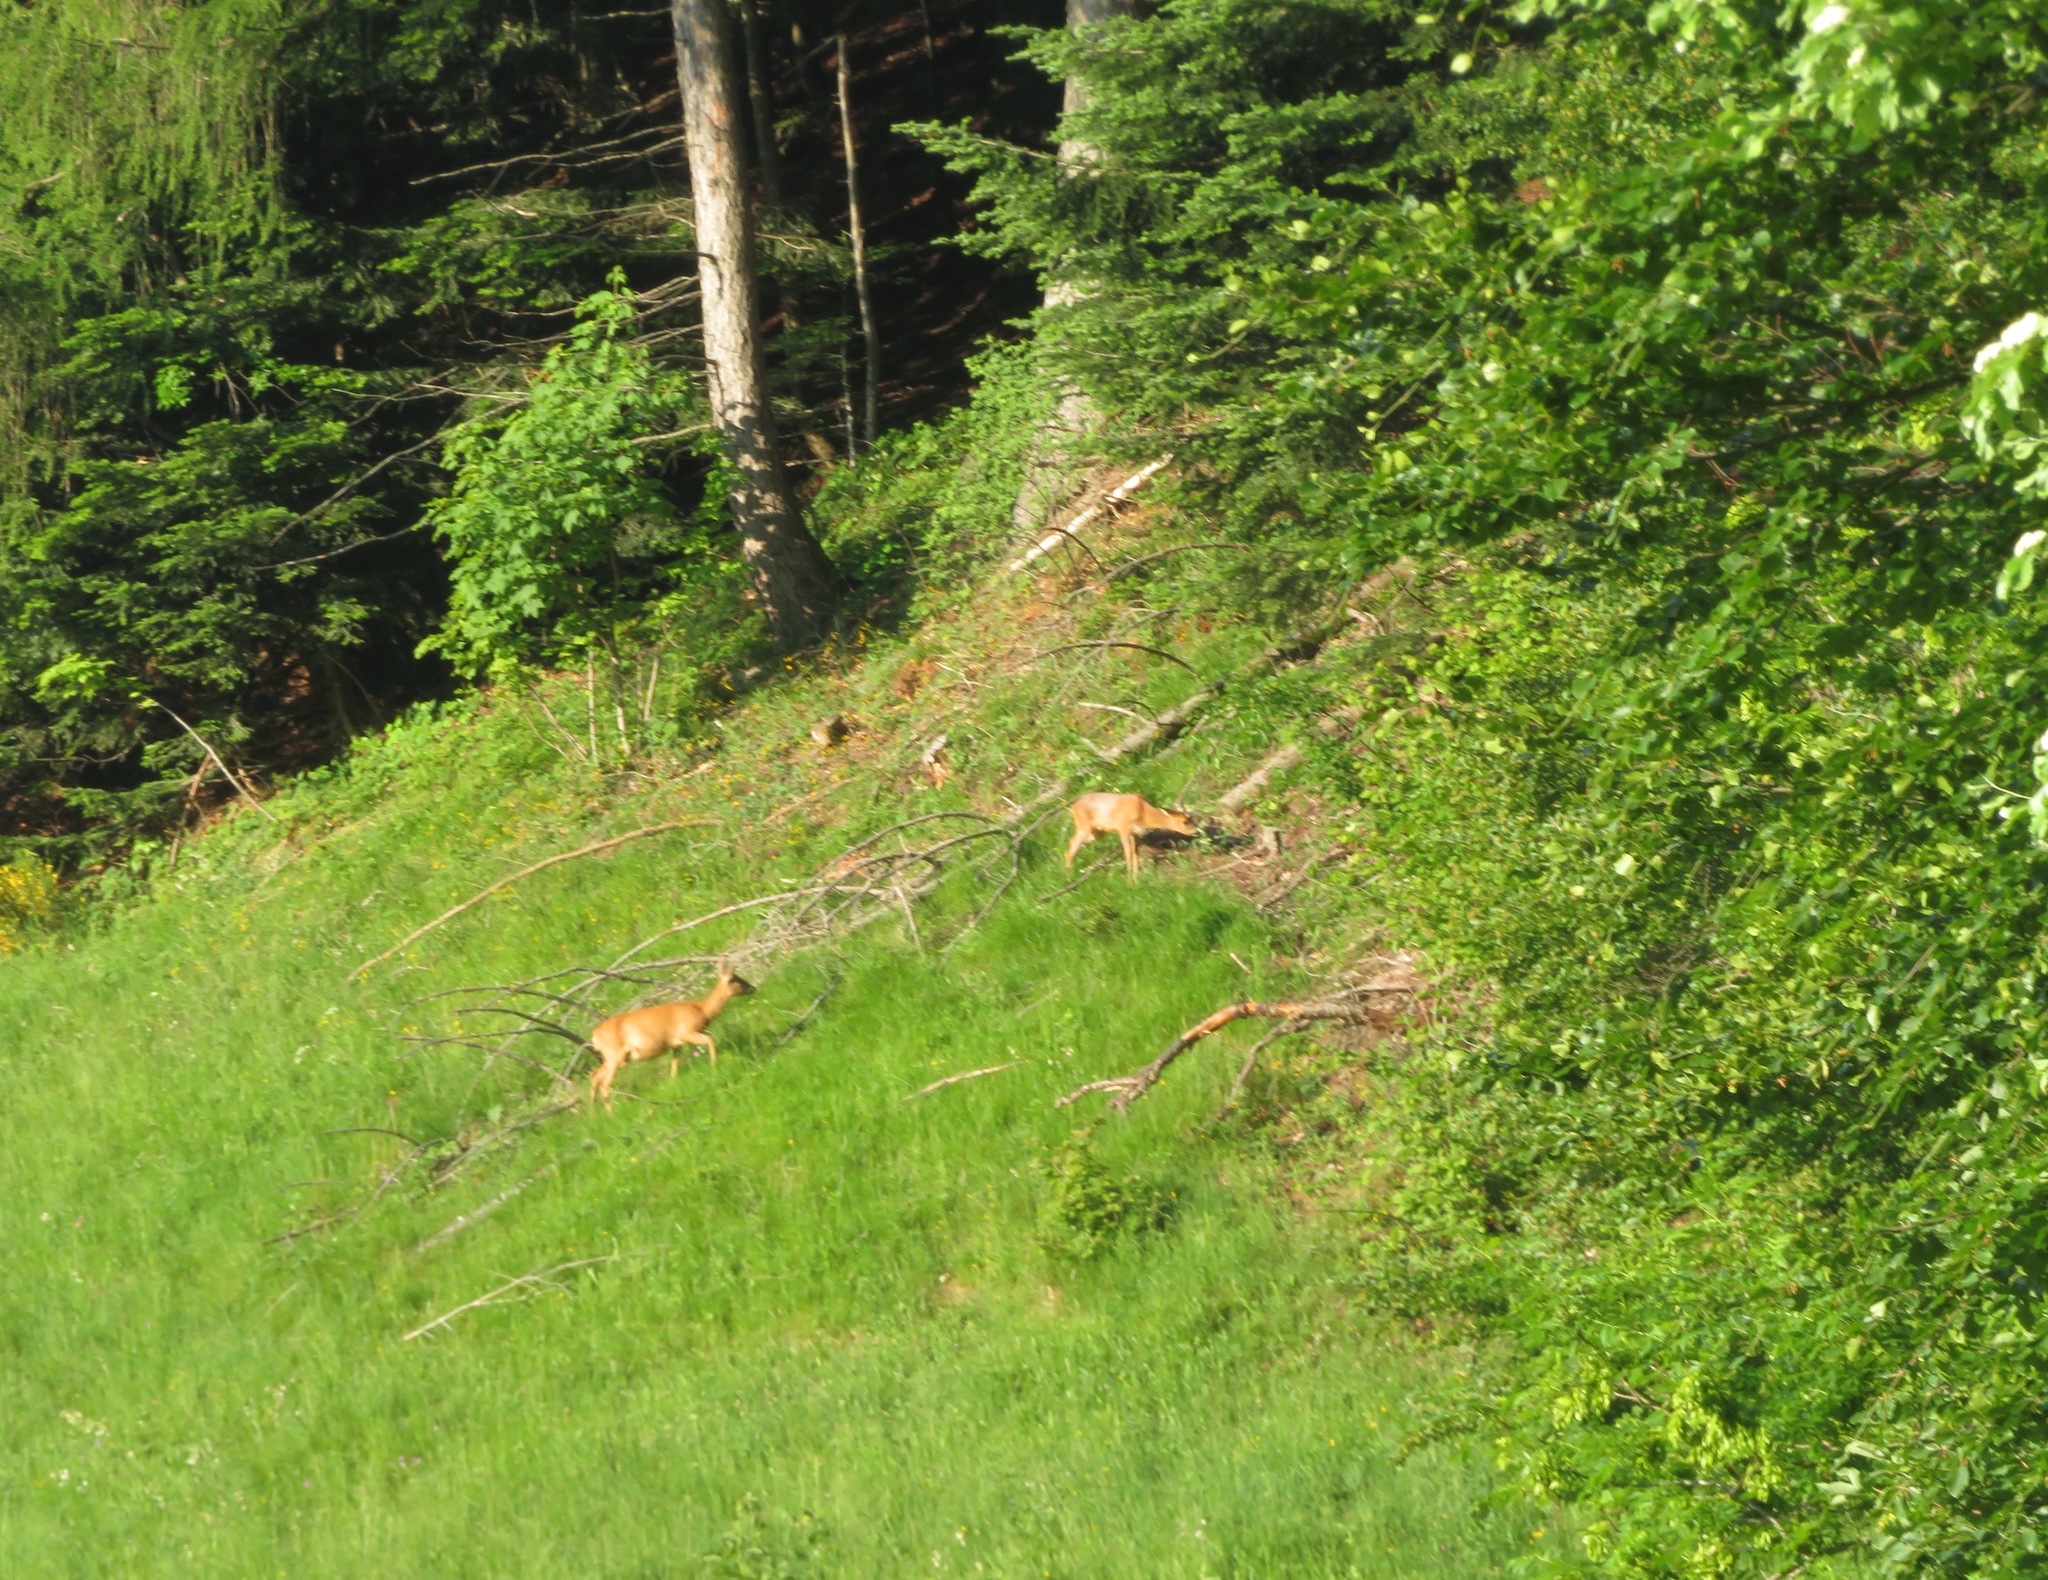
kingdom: Animalia
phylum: Chordata
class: Mammalia
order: Artiodactyla
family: Cervidae
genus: Capreolus
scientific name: Capreolus capreolus
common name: Western roe deer
